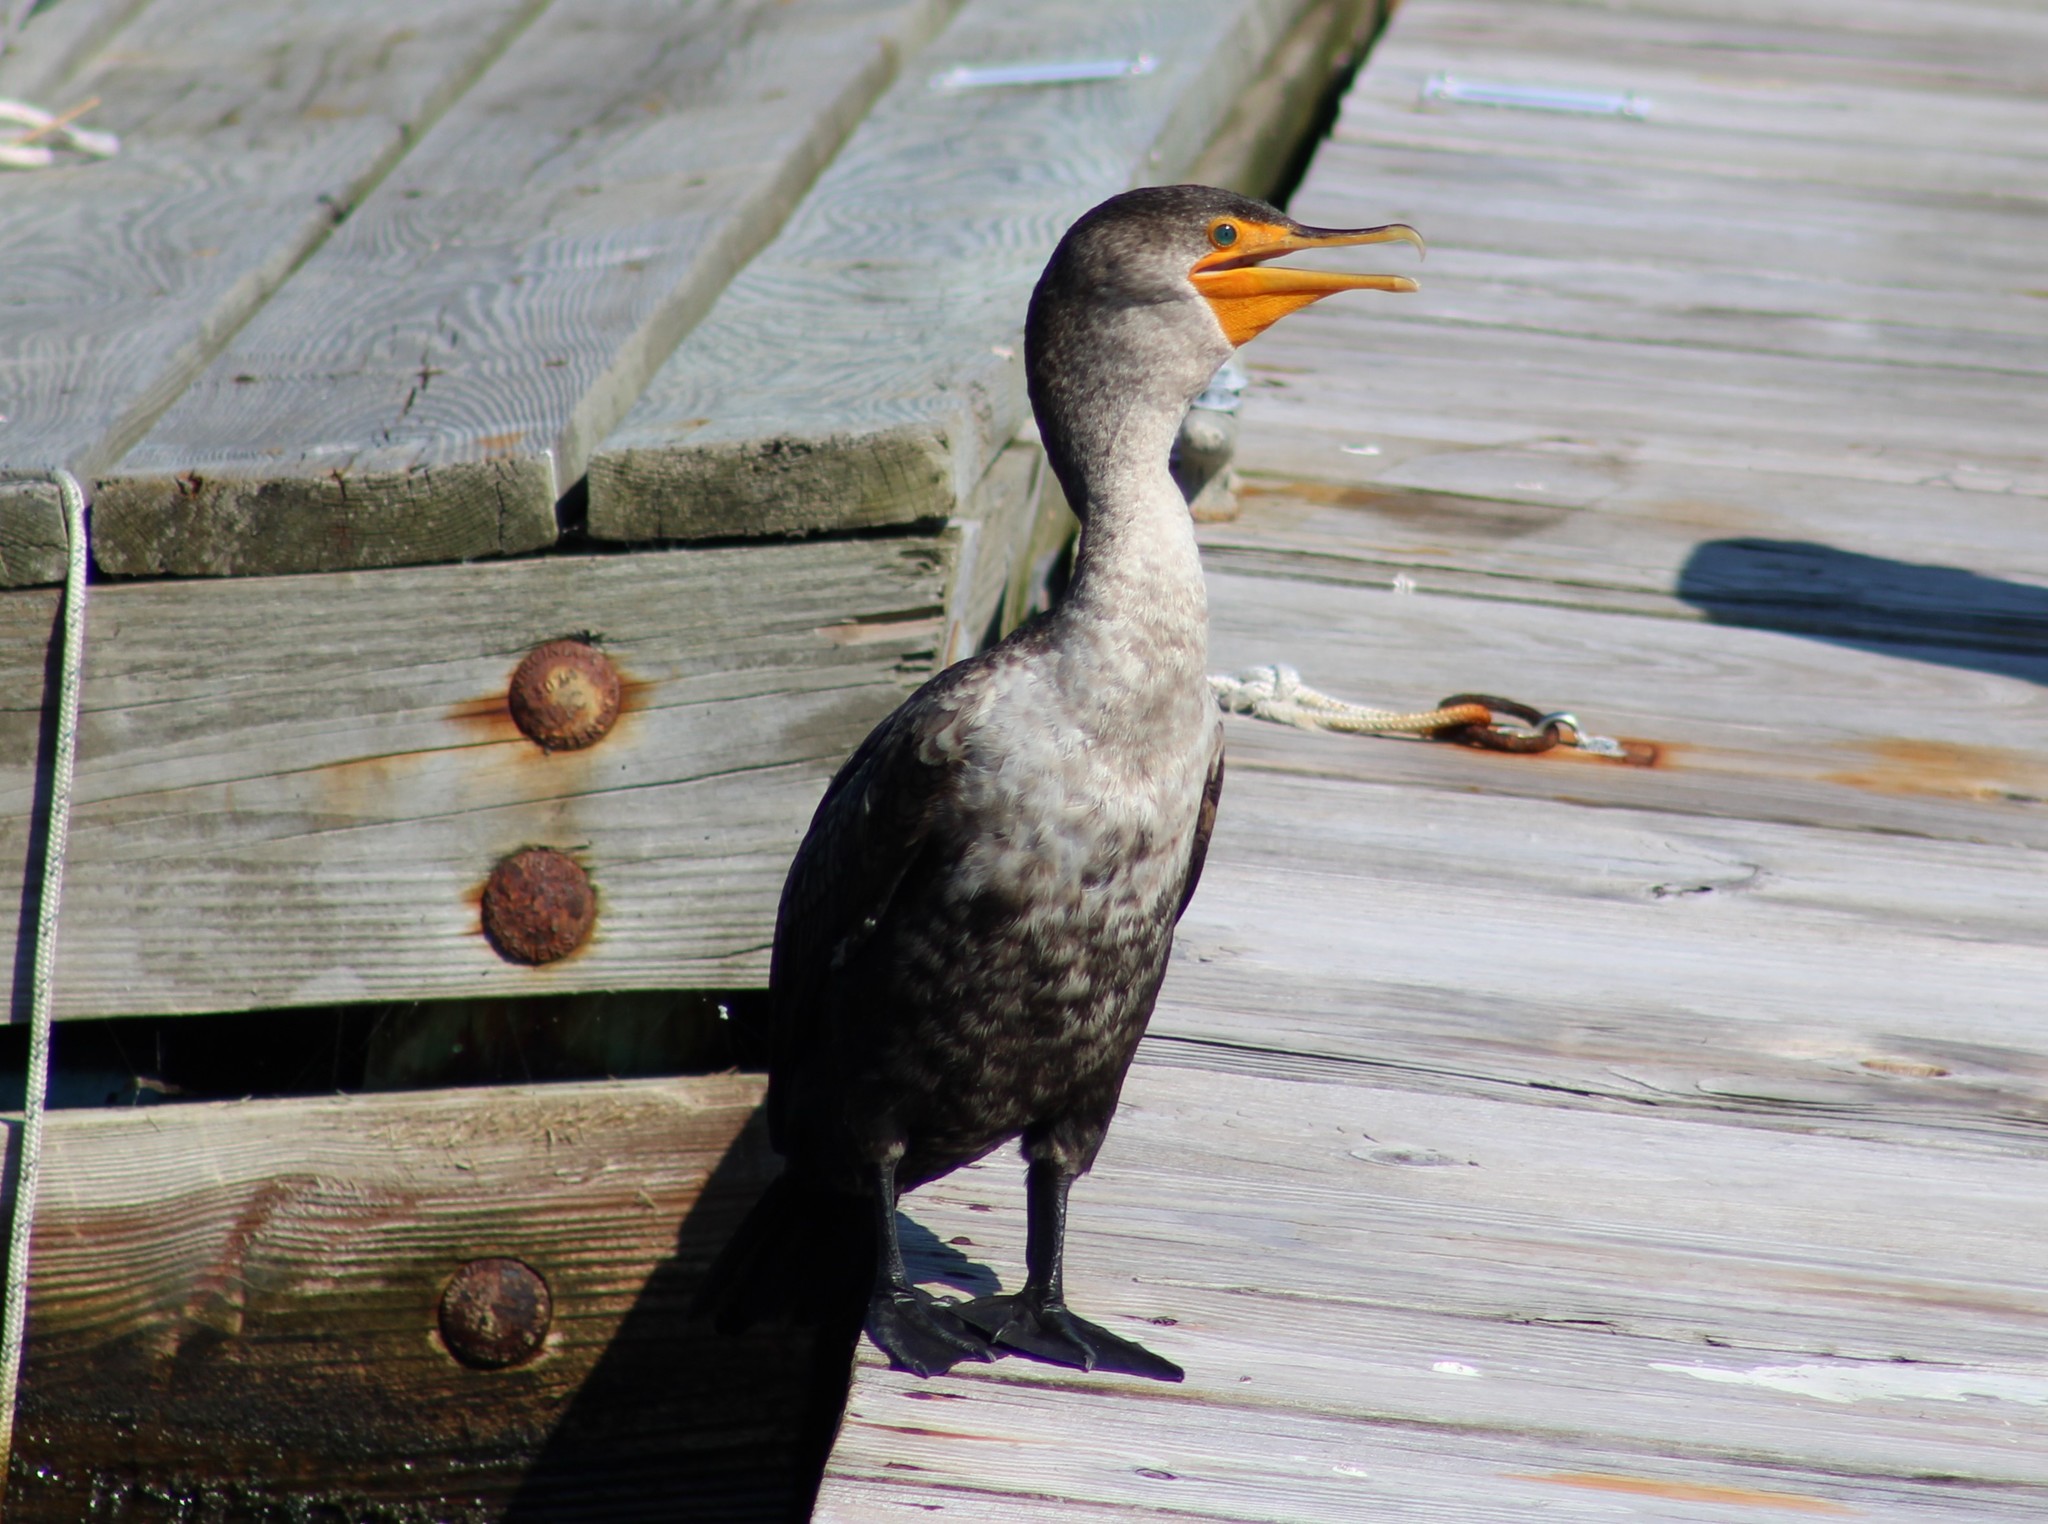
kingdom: Animalia
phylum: Chordata
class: Aves
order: Suliformes
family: Phalacrocoracidae
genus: Phalacrocorax
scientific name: Phalacrocorax auritus
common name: Double-crested cormorant
